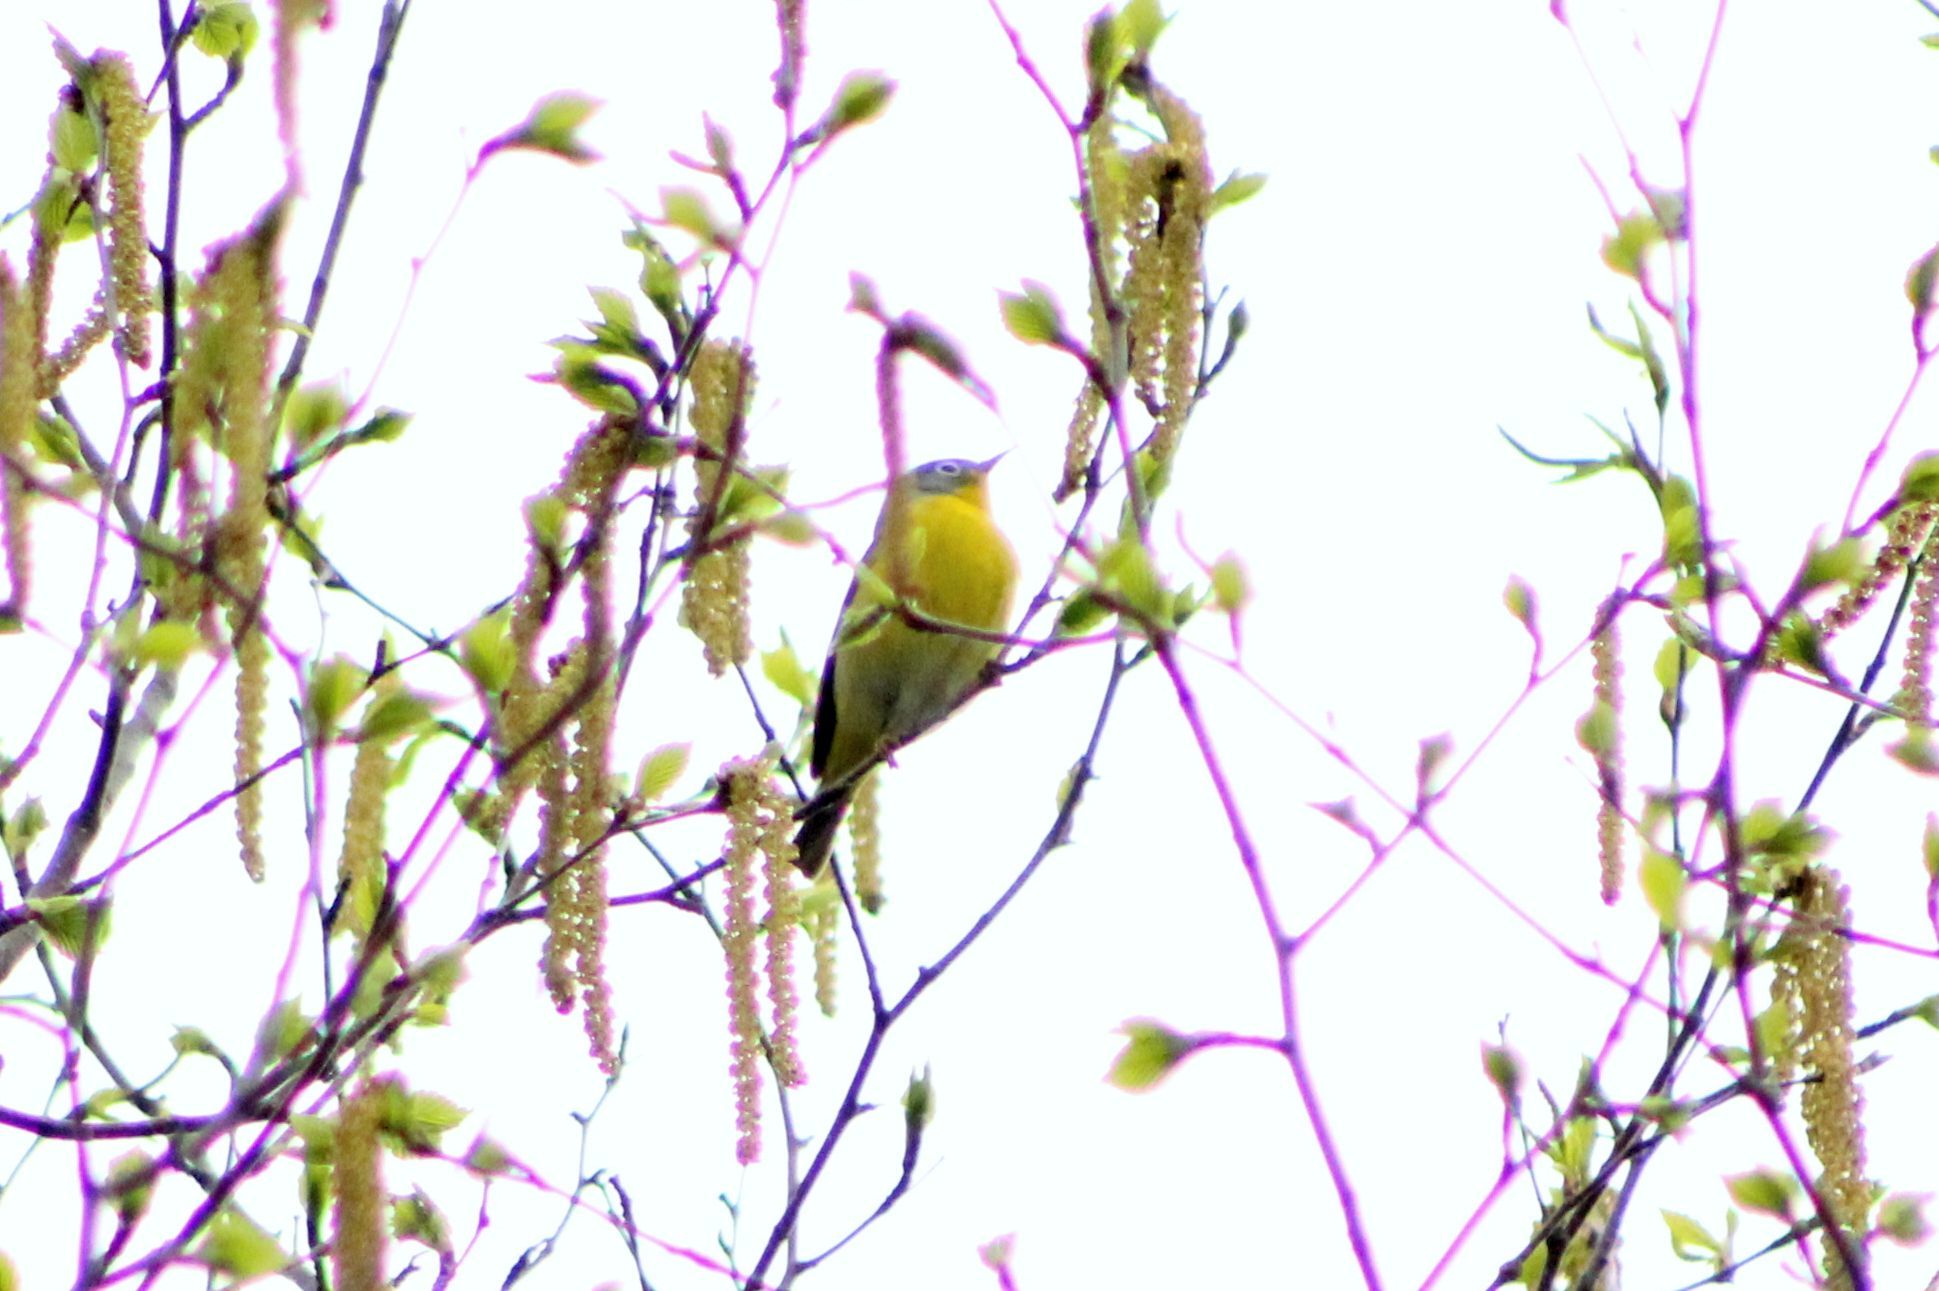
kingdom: Animalia
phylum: Chordata
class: Aves
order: Passeriformes
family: Parulidae
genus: Leiothlypis
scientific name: Leiothlypis ruficapilla
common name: Nashville warbler
